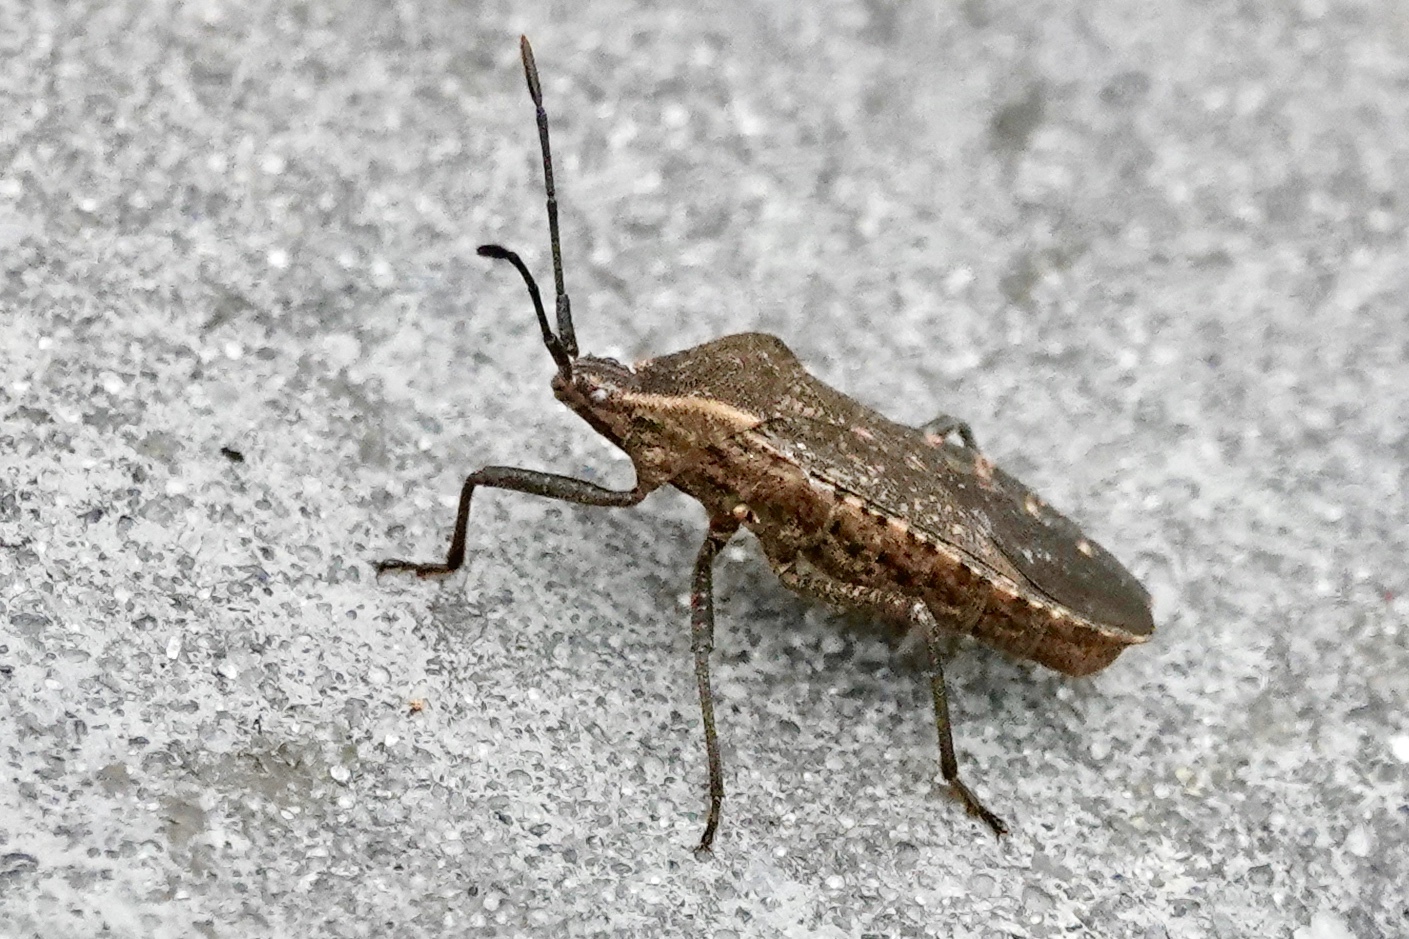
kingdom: Animalia
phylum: Arthropoda
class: Insecta
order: Hemiptera
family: Coreidae
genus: Anasa
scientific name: Anasa tristis
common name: Squash bug
